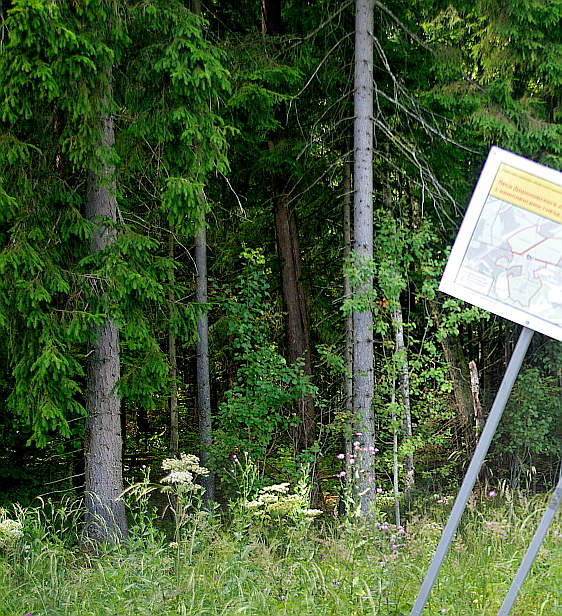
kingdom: Plantae
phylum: Tracheophyta
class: Pinopsida
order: Pinales
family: Pinaceae
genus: Picea
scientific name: Picea abies
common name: Norway spruce
